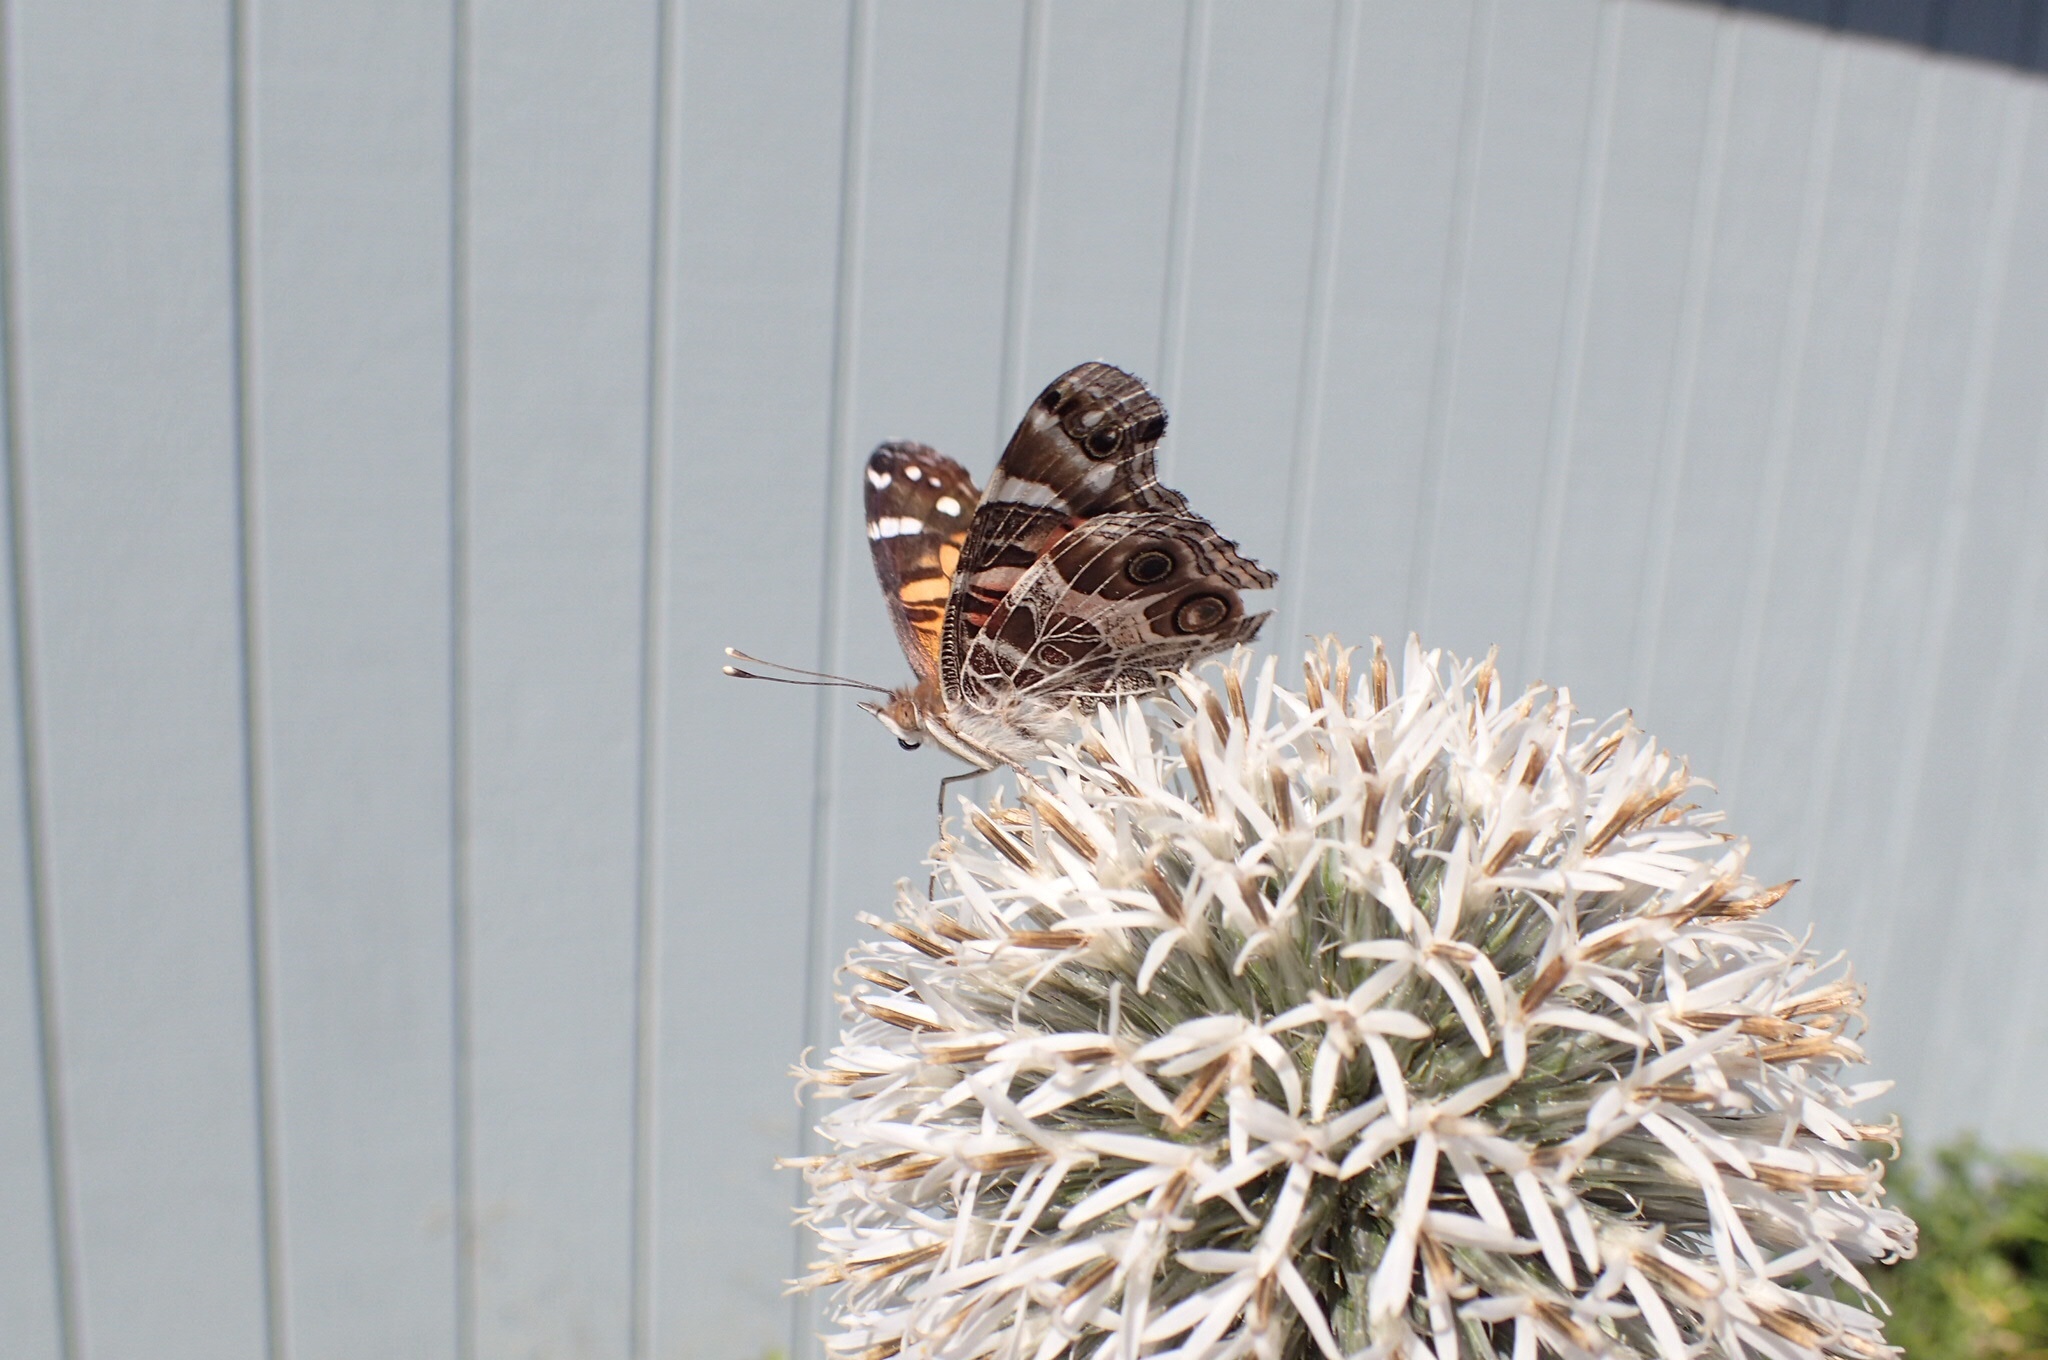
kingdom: Animalia
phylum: Arthropoda
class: Insecta
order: Lepidoptera
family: Nymphalidae
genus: Vanessa
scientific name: Vanessa virginiensis
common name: American lady
